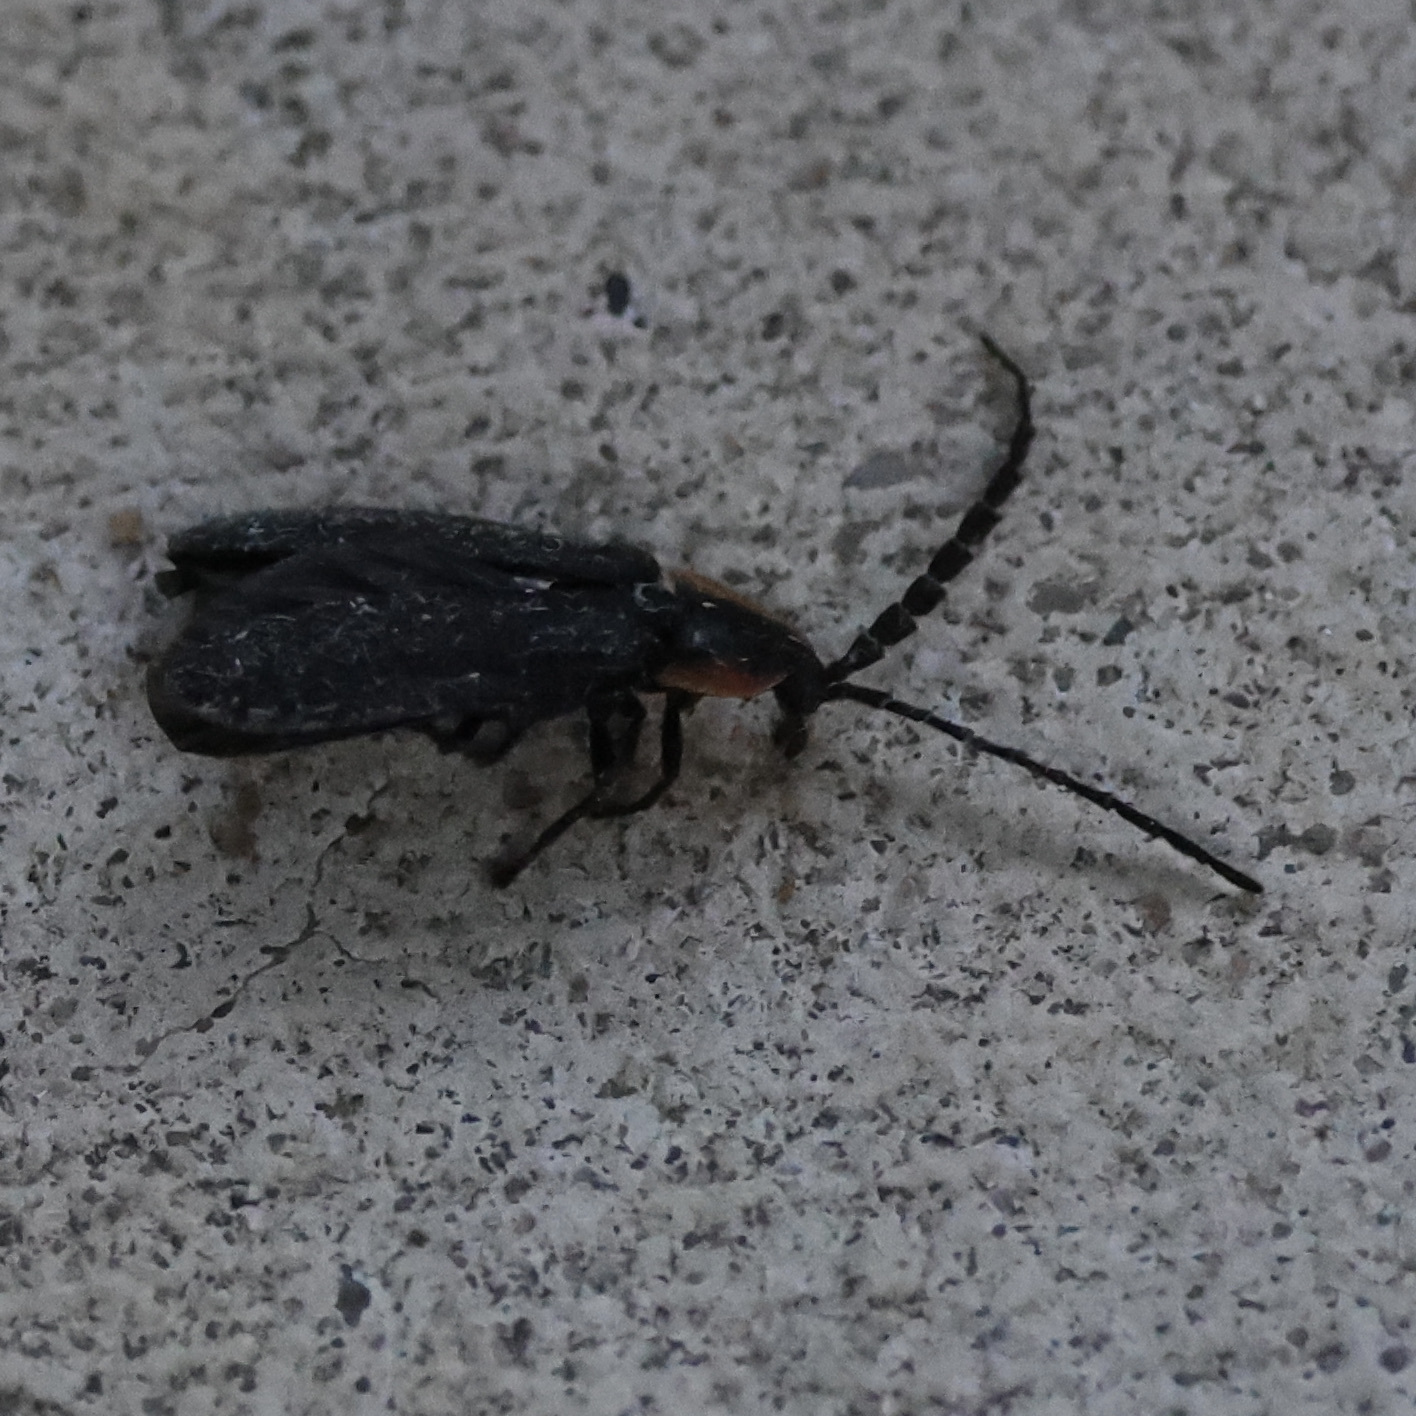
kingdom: Animalia
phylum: Arthropoda
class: Insecta
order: Coleoptera
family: Lampyridae
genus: Lucidota
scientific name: Lucidota atra
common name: Black firefly
